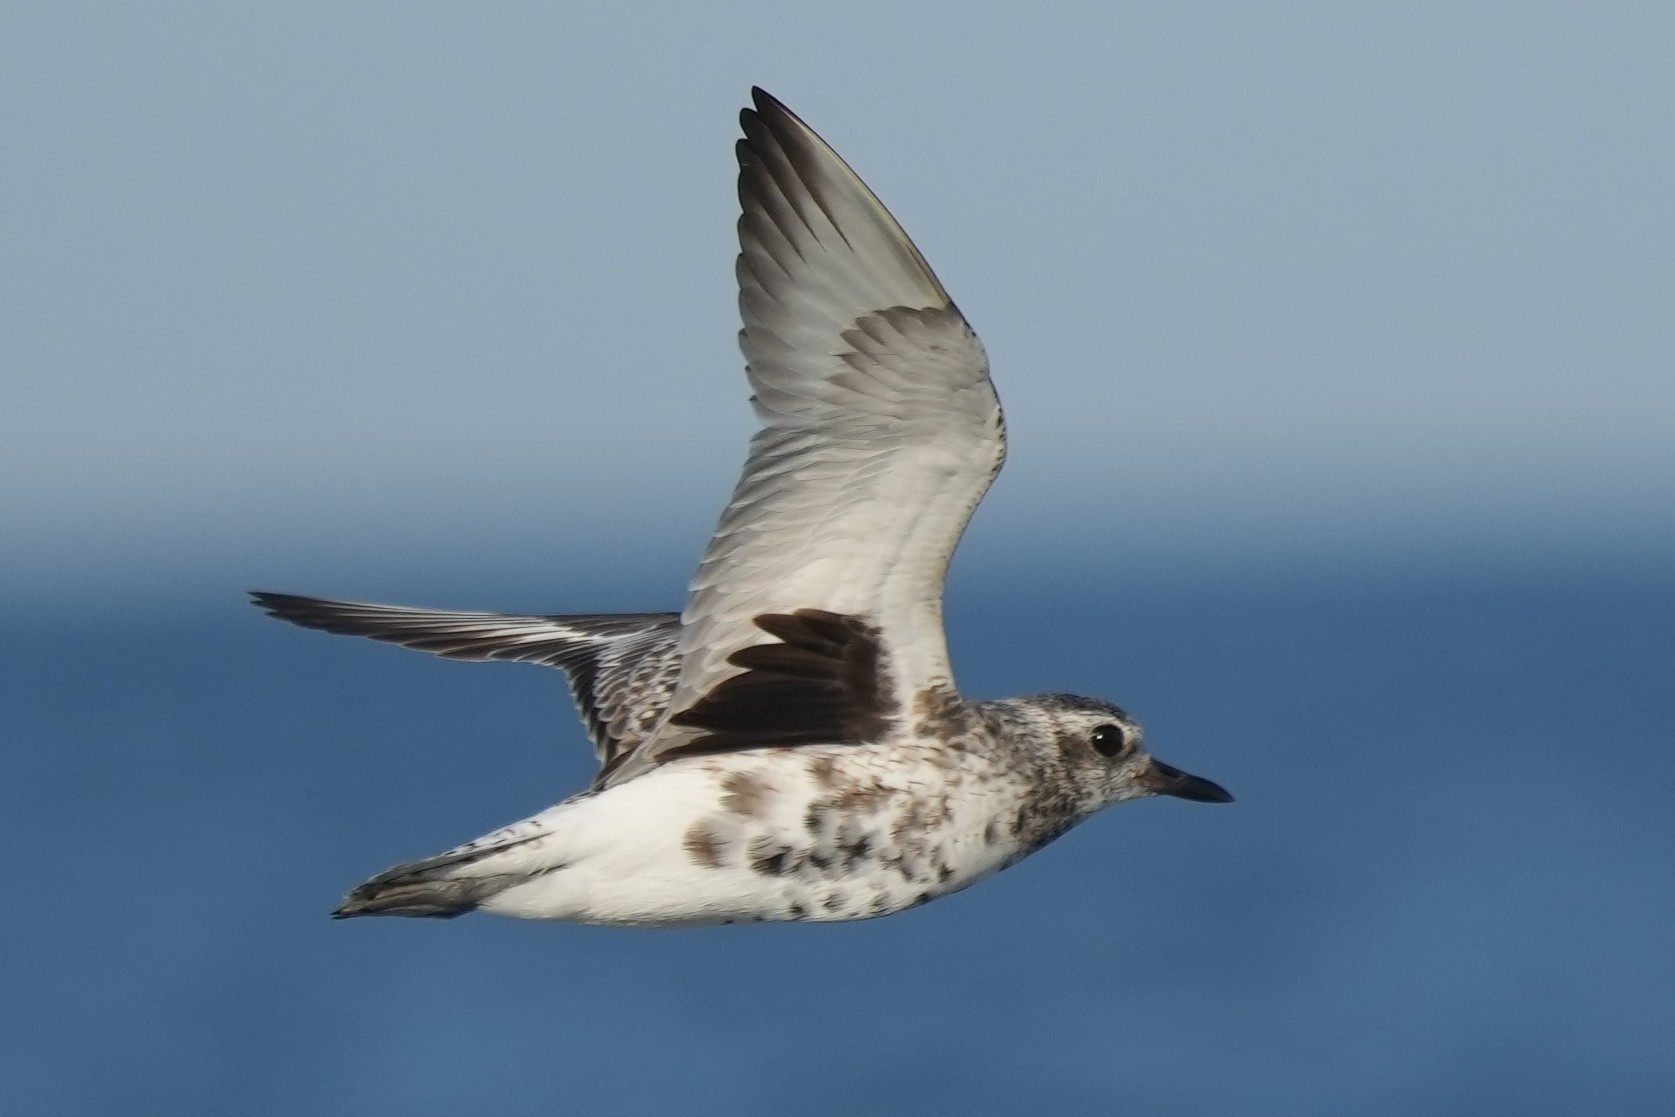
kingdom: Animalia
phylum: Chordata
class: Aves
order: Charadriiformes
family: Charadriidae
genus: Pluvialis
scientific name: Pluvialis squatarola
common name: Grey plover
